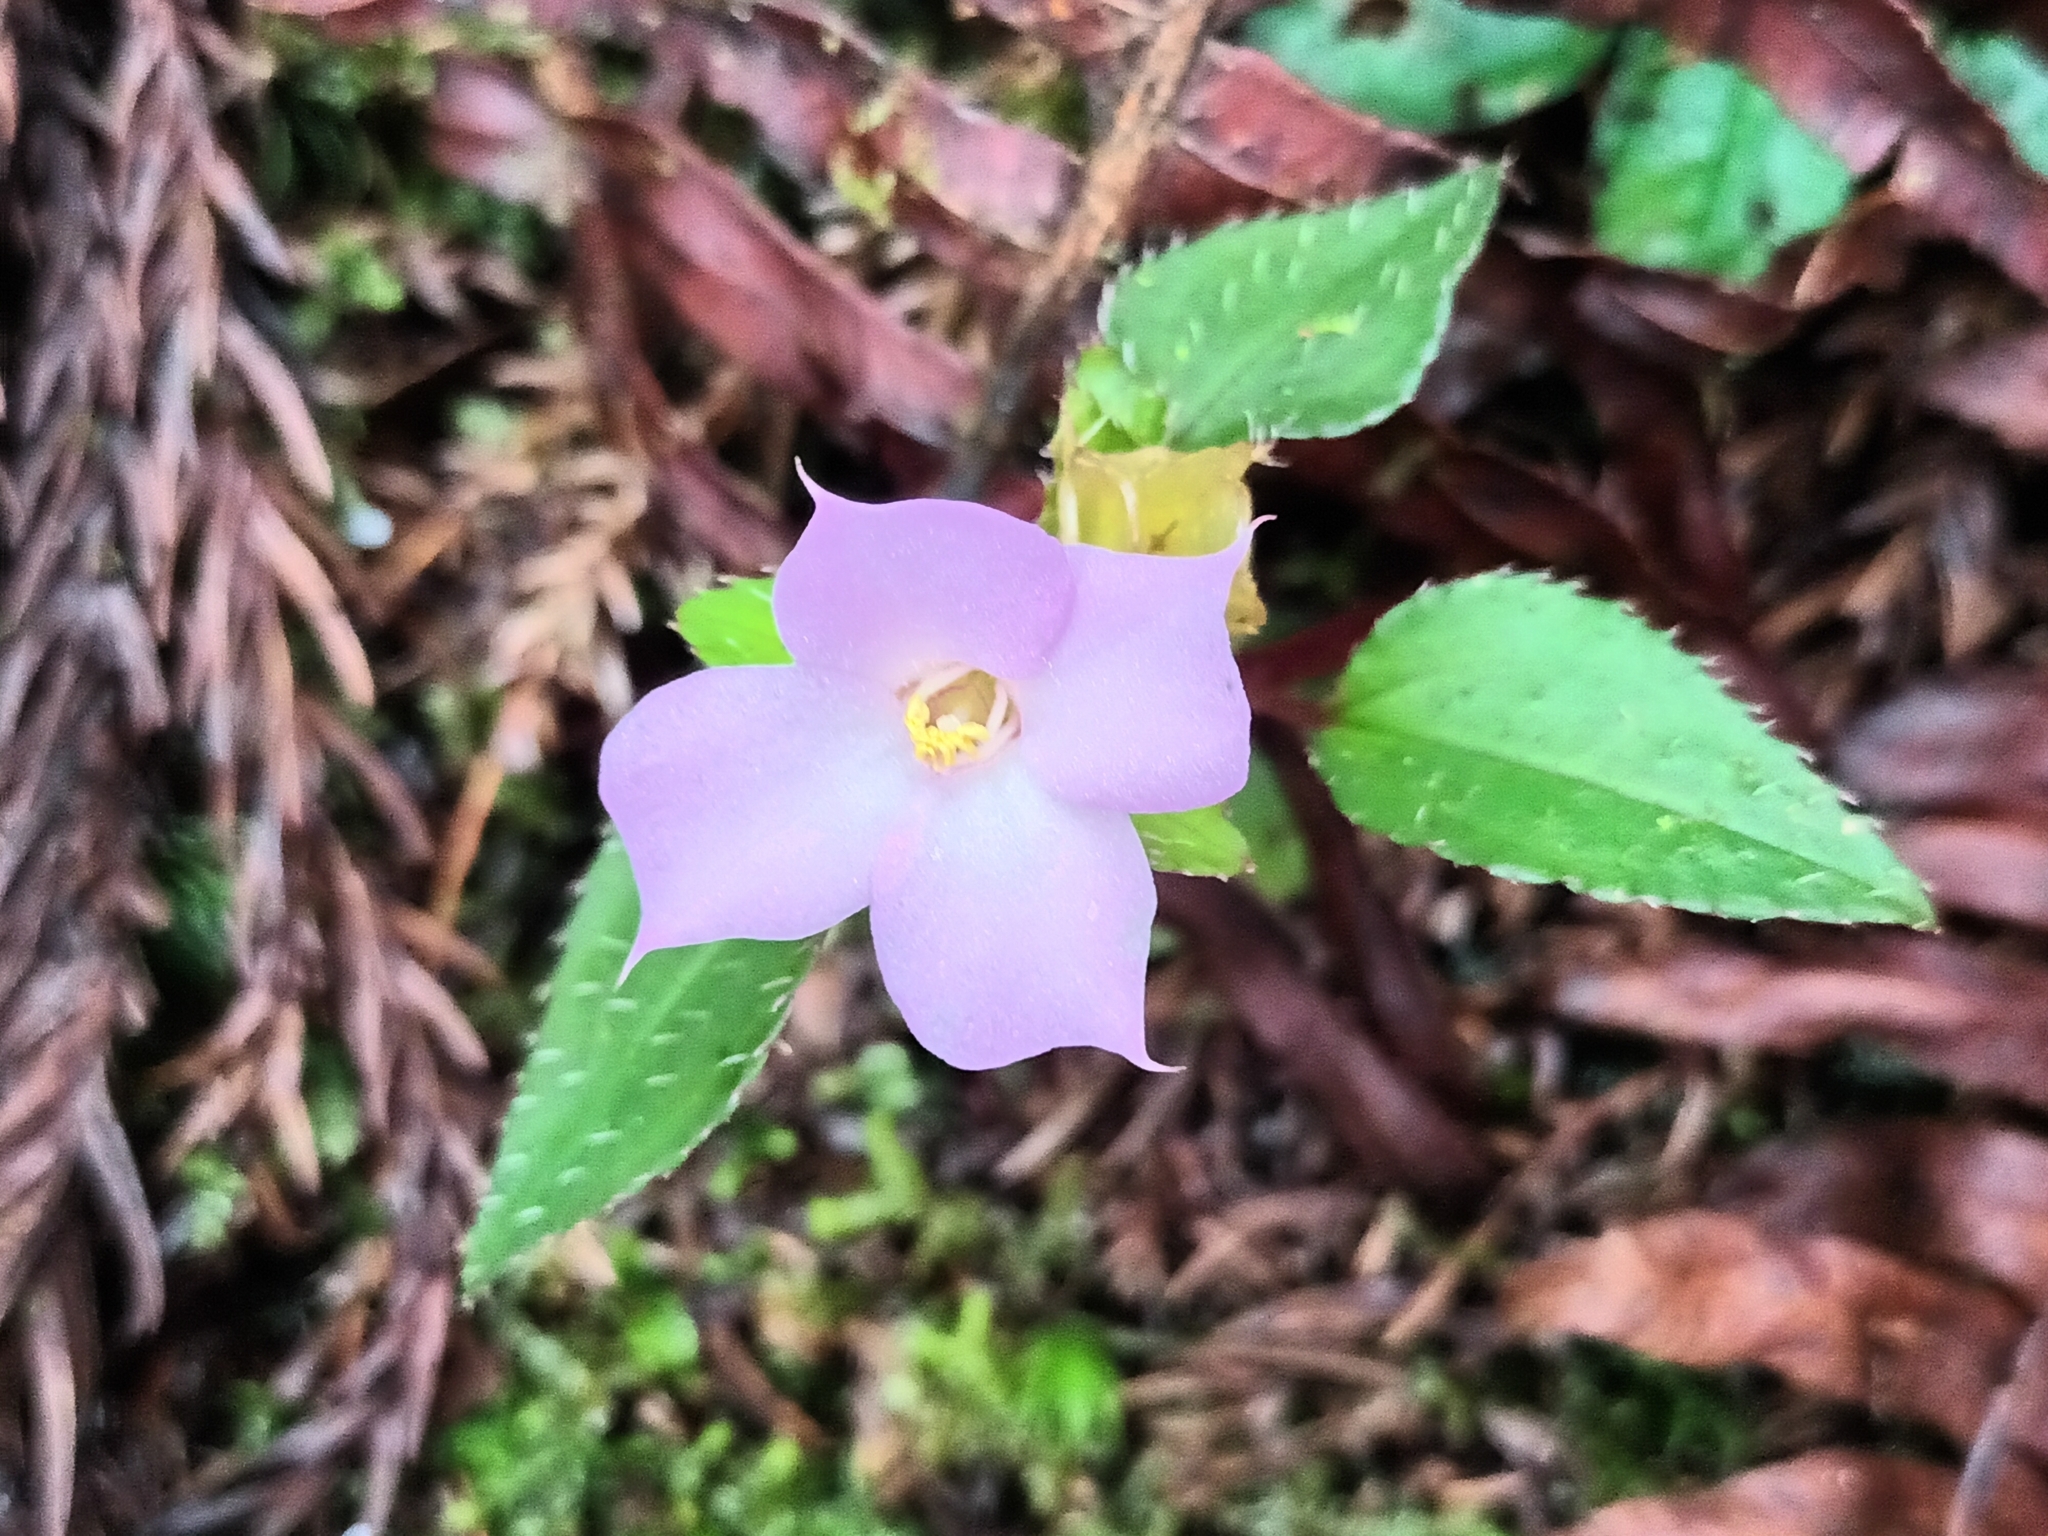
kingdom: Plantae
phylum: Tracheophyta
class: Magnoliopsida
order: Myrtales
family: Melastomataceae
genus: Sarcopyramis
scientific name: Sarcopyramis bodinieri
